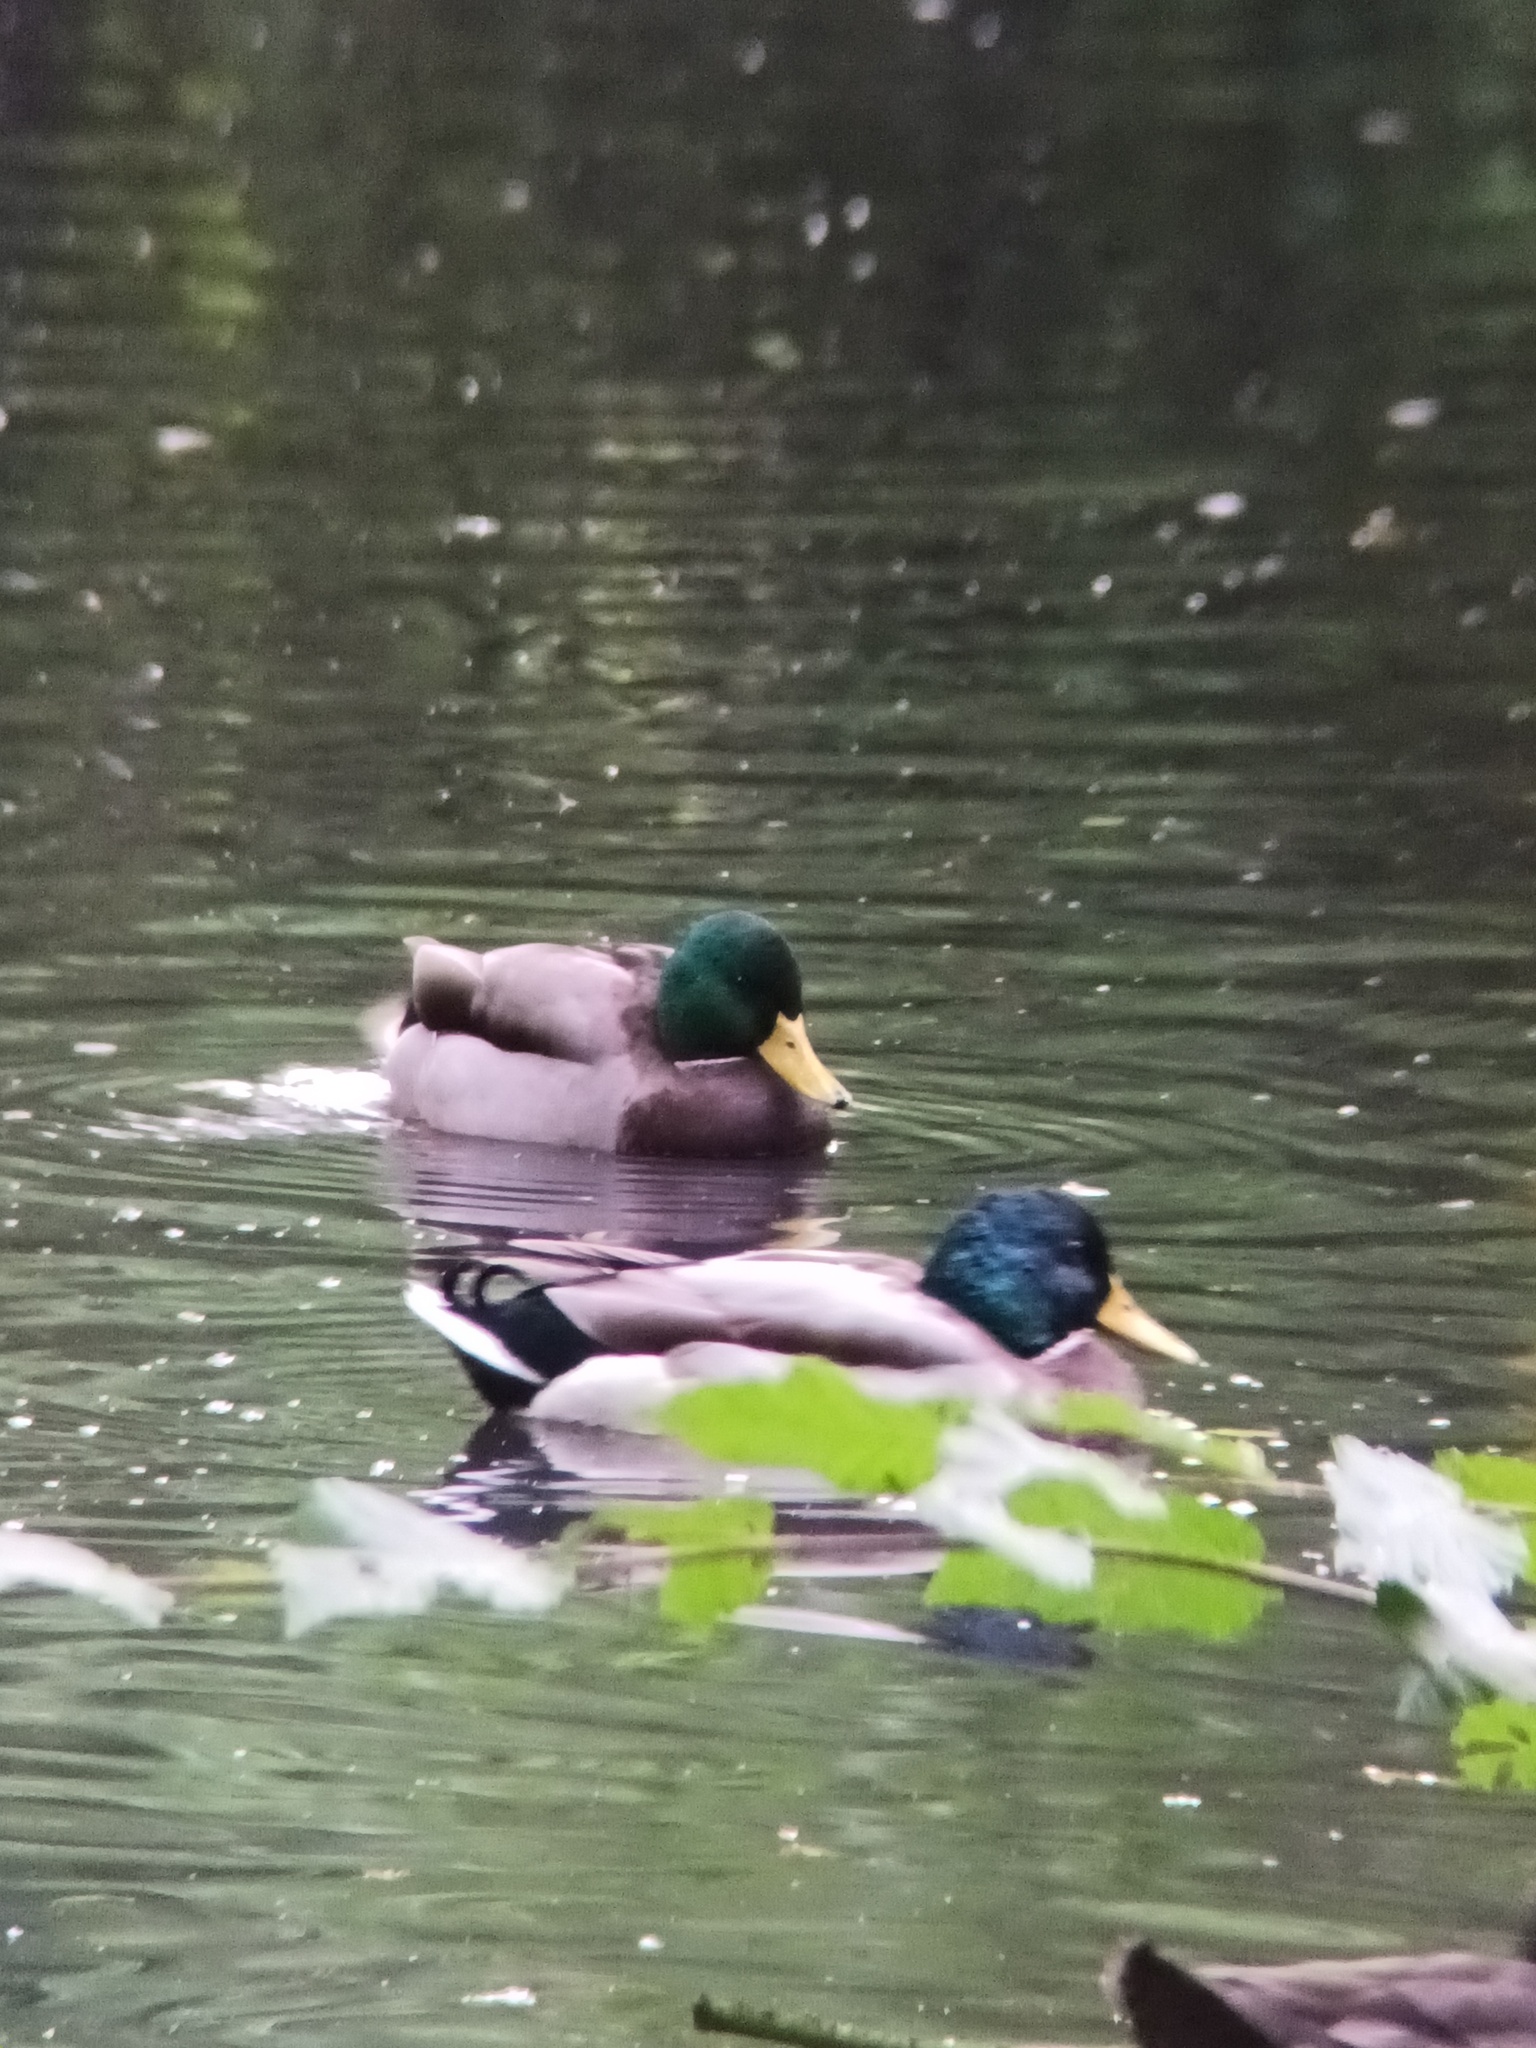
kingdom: Animalia
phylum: Chordata
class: Aves
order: Anseriformes
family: Anatidae
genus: Anas
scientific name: Anas platyrhynchos
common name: Mallard
